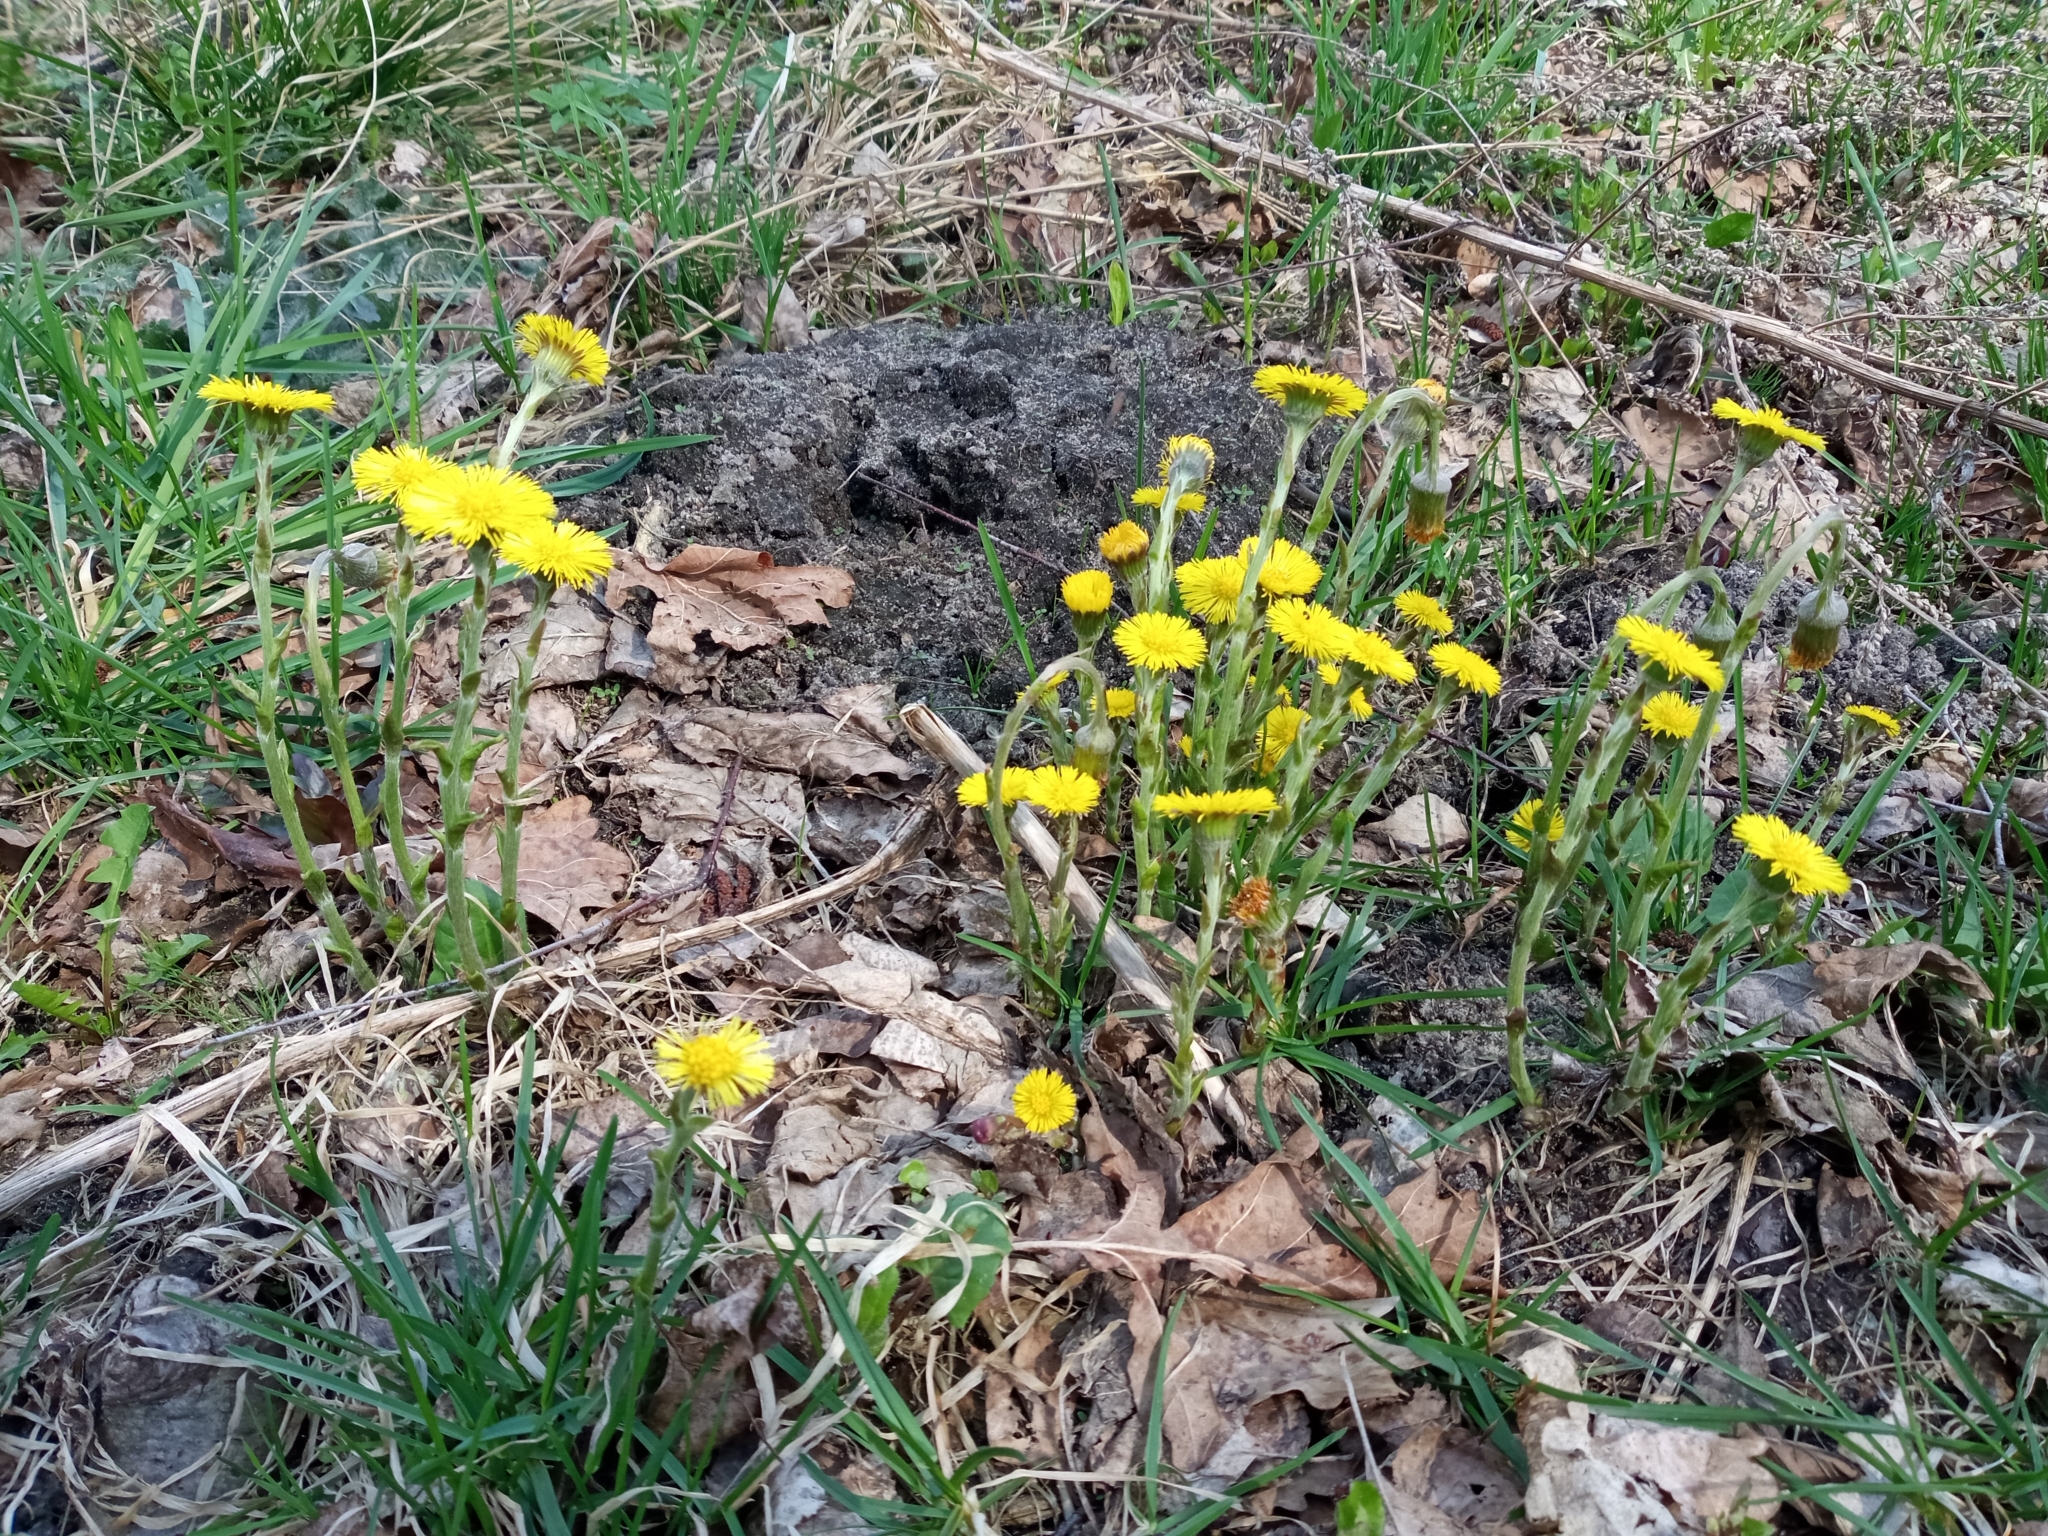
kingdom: Plantae
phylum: Tracheophyta
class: Magnoliopsida
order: Asterales
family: Asteraceae
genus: Tussilago
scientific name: Tussilago farfara
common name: Coltsfoot
